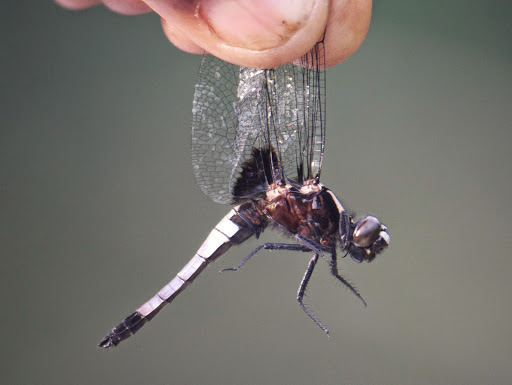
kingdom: Animalia
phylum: Arthropoda
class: Insecta
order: Odonata
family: Libellulidae
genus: Cyanothemis
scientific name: Cyanothemis simpsoni
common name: Bluebolt
